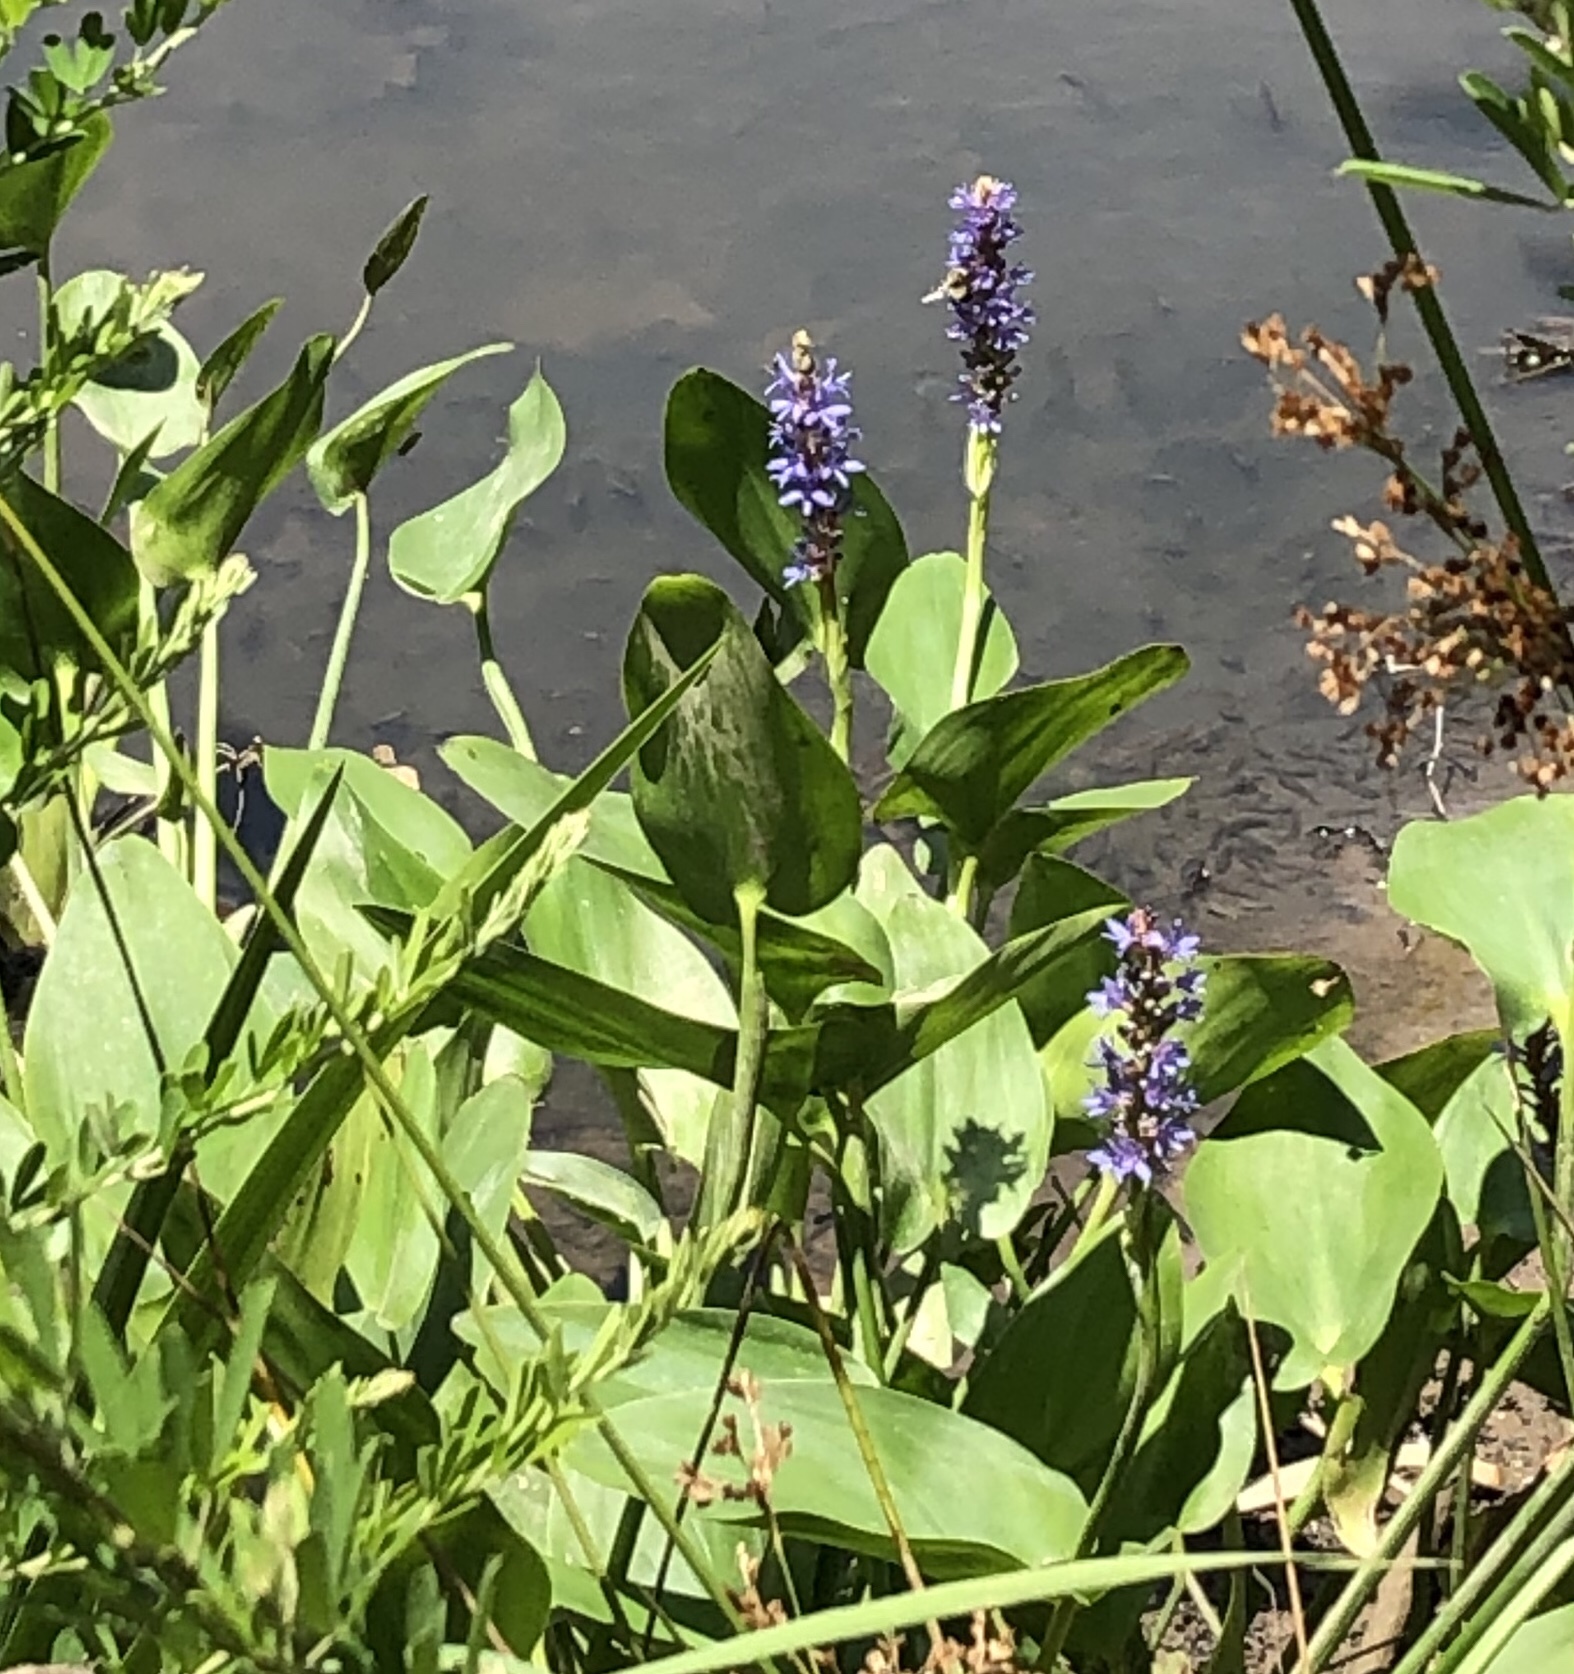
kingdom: Plantae
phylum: Tracheophyta
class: Liliopsida
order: Commelinales
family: Pontederiaceae
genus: Pontederia
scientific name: Pontederia cordata
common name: Pickerelweed
